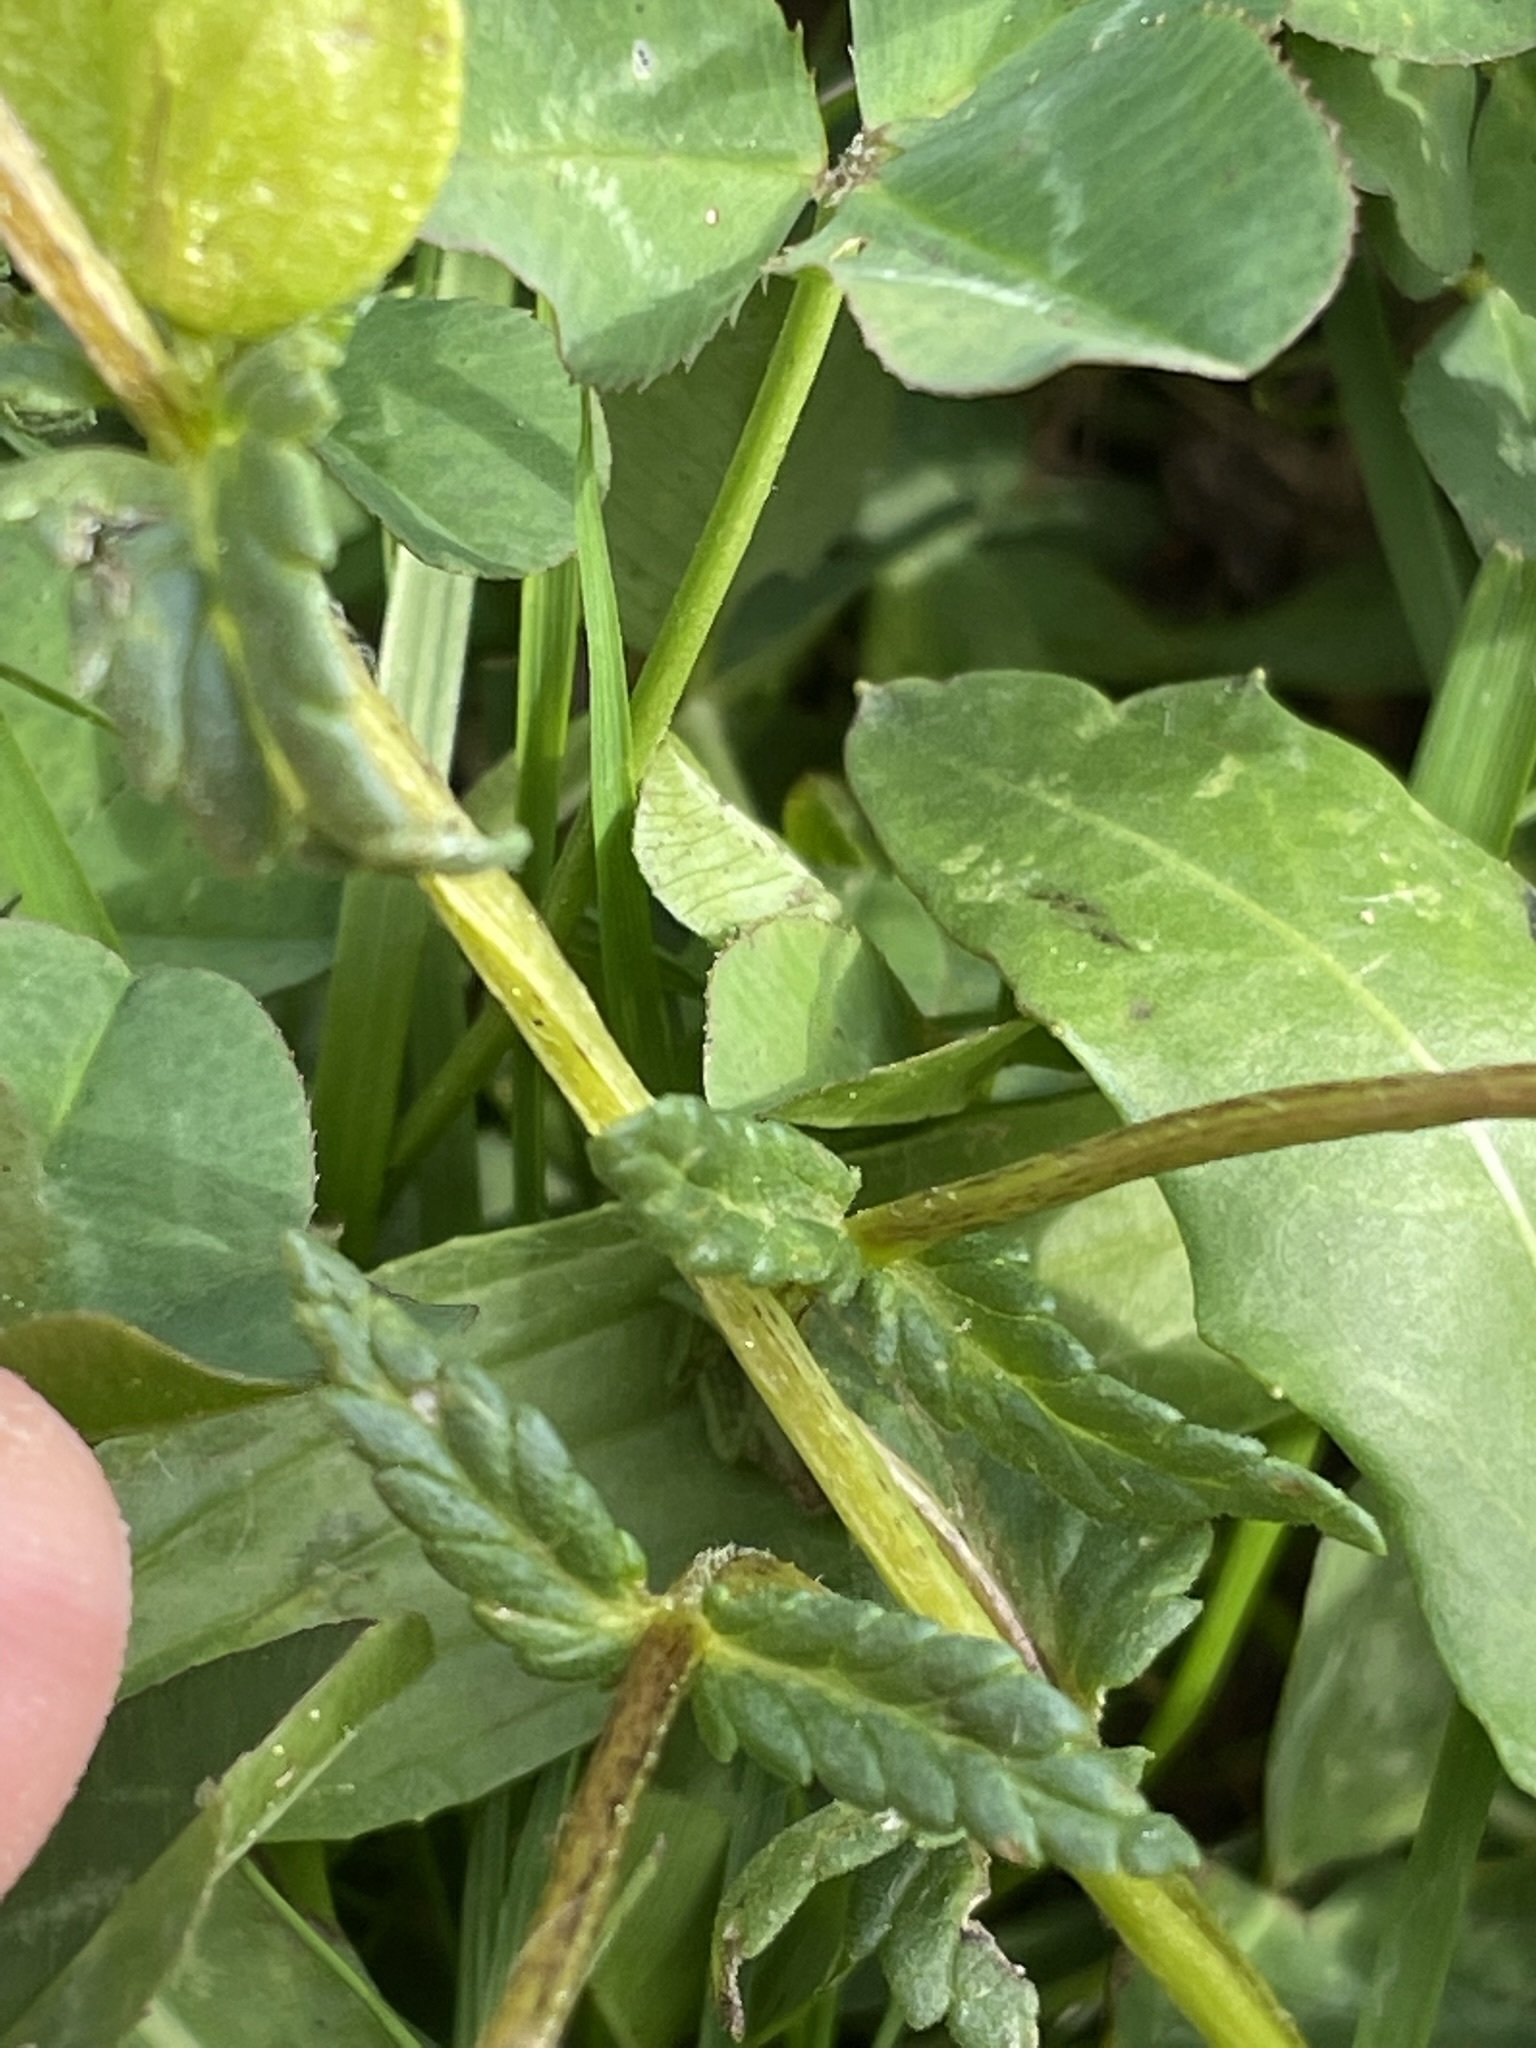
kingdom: Plantae
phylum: Tracheophyta
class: Magnoliopsida
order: Lamiales
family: Orobanchaceae
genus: Rhinanthus
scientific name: Rhinanthus minor
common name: Yellow-rattle
